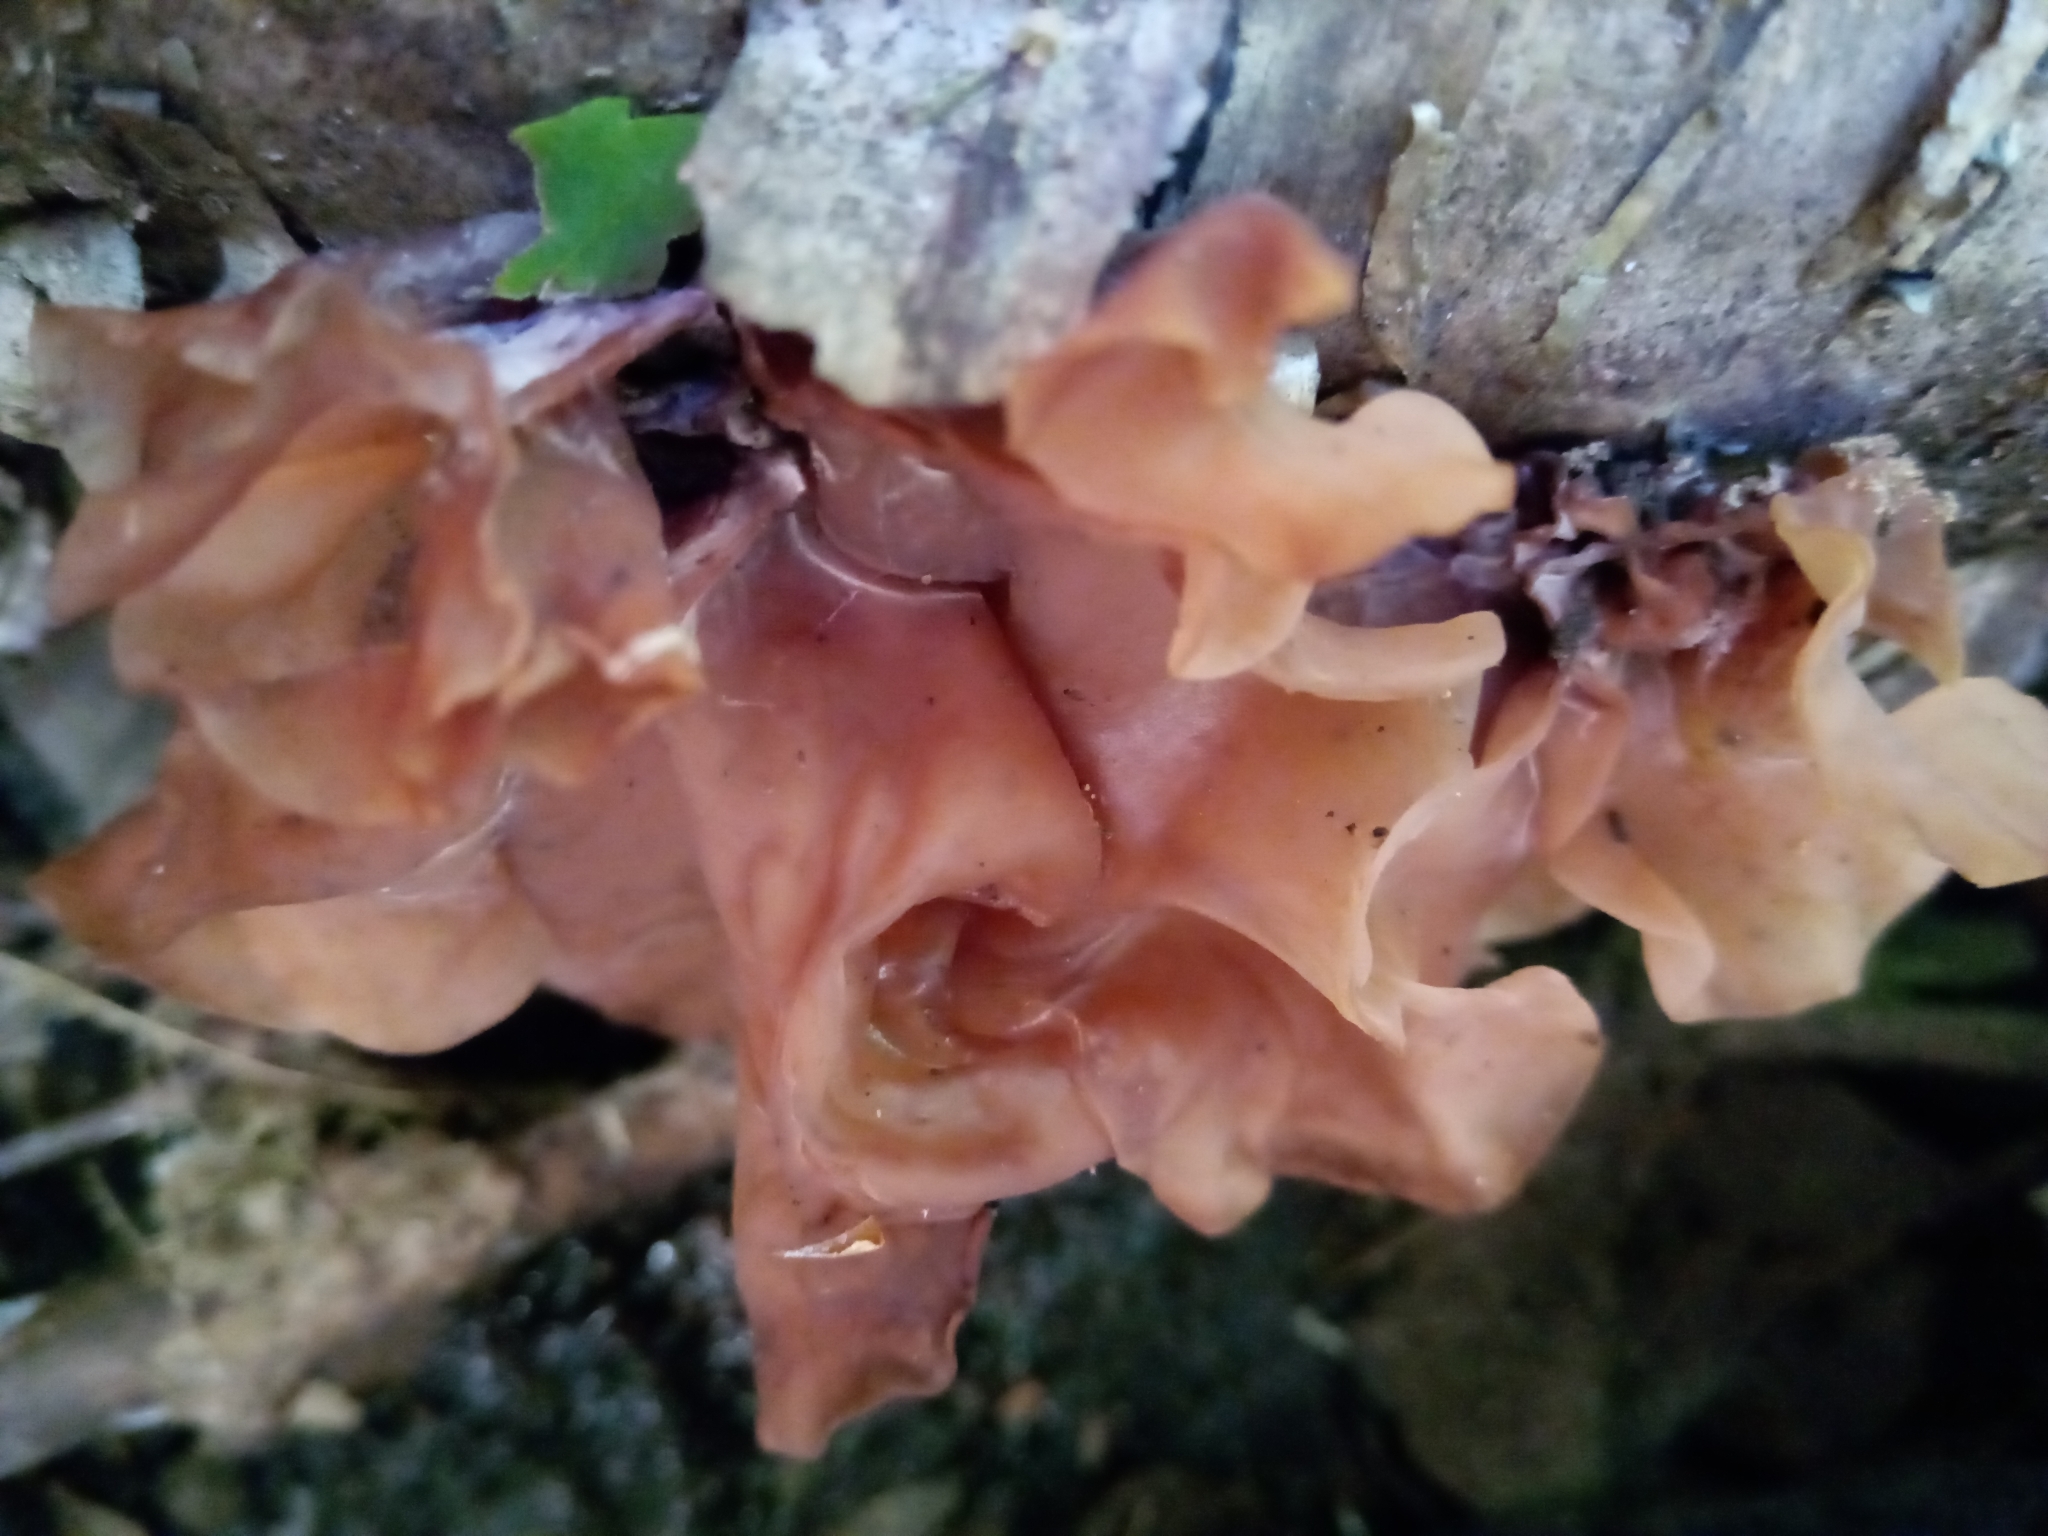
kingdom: Fungi
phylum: Basidiomycota
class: Tremellomycetes
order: Tremellales
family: Tremellaceae
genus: Phaeotremella
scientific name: Phaeotremella frondosa
